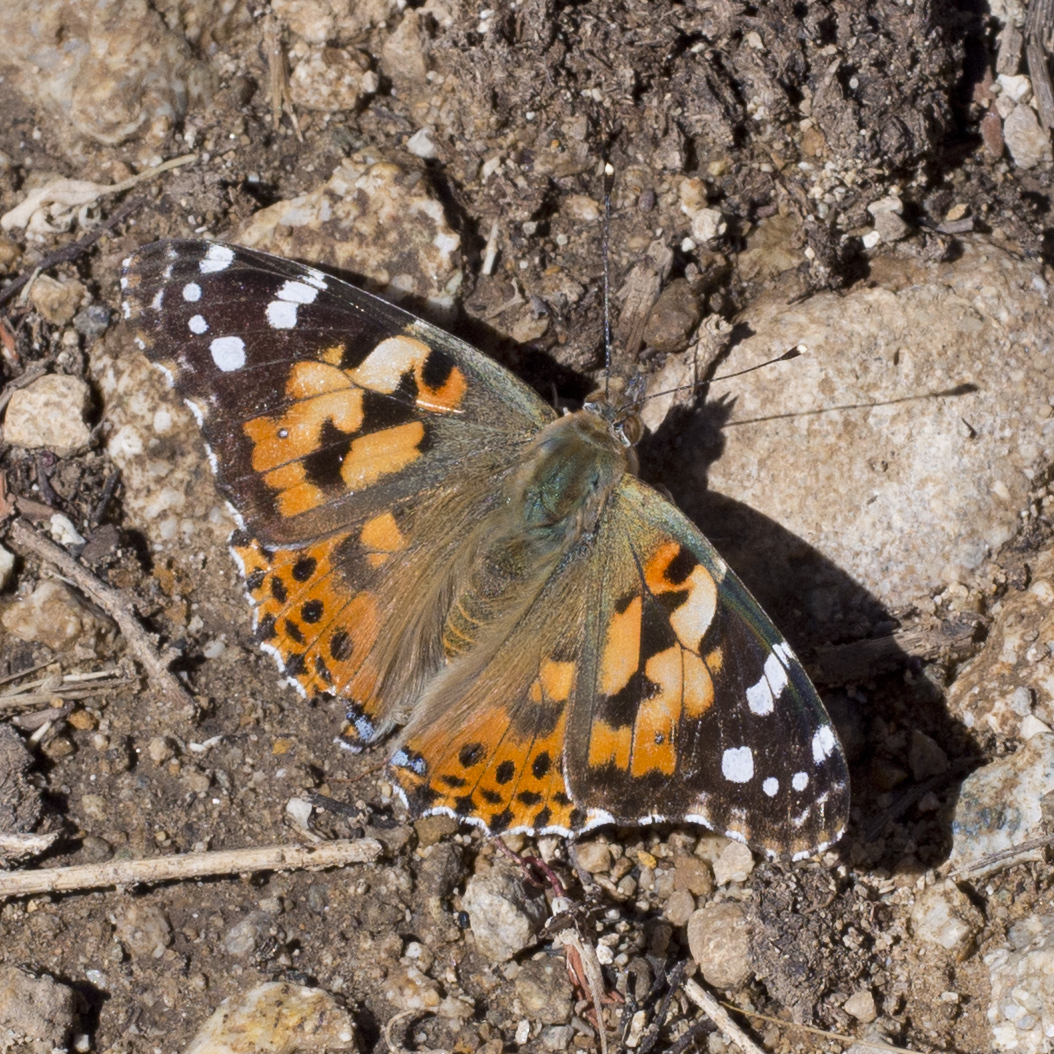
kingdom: Animalia
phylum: Arthropoda
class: Insecta
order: Lepidoptera
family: Nymphalidae
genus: Vanessa
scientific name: Vanessa cardui
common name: Painted lady
